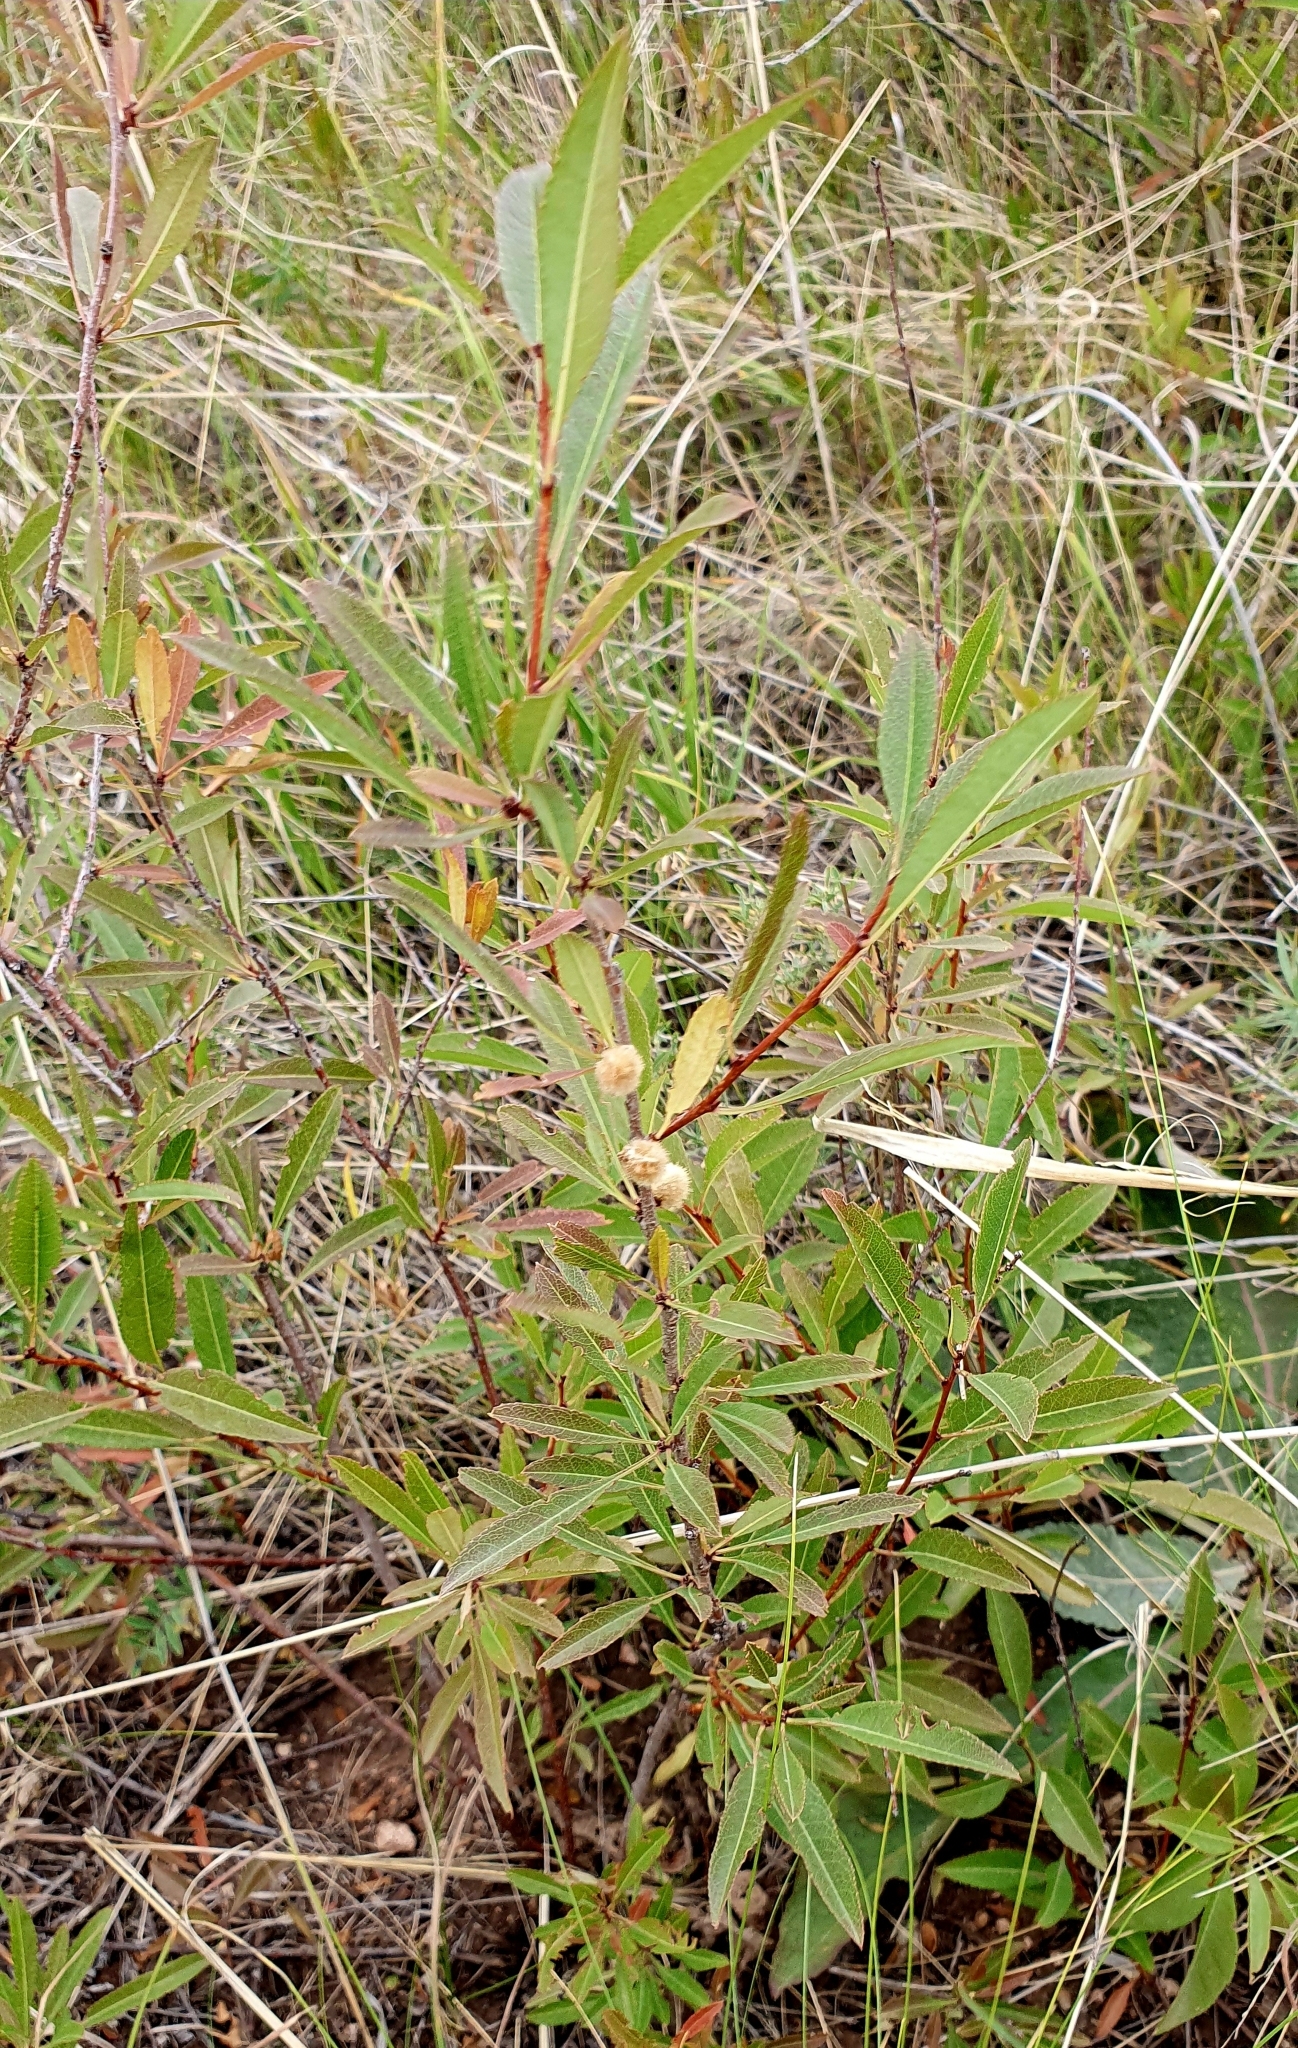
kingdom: Plantae
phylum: Tracheophyta
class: Magnoliopsida
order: Rosales
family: Rosaceae
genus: Prunus
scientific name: Prunus tenella
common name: Dwarf russian almond
